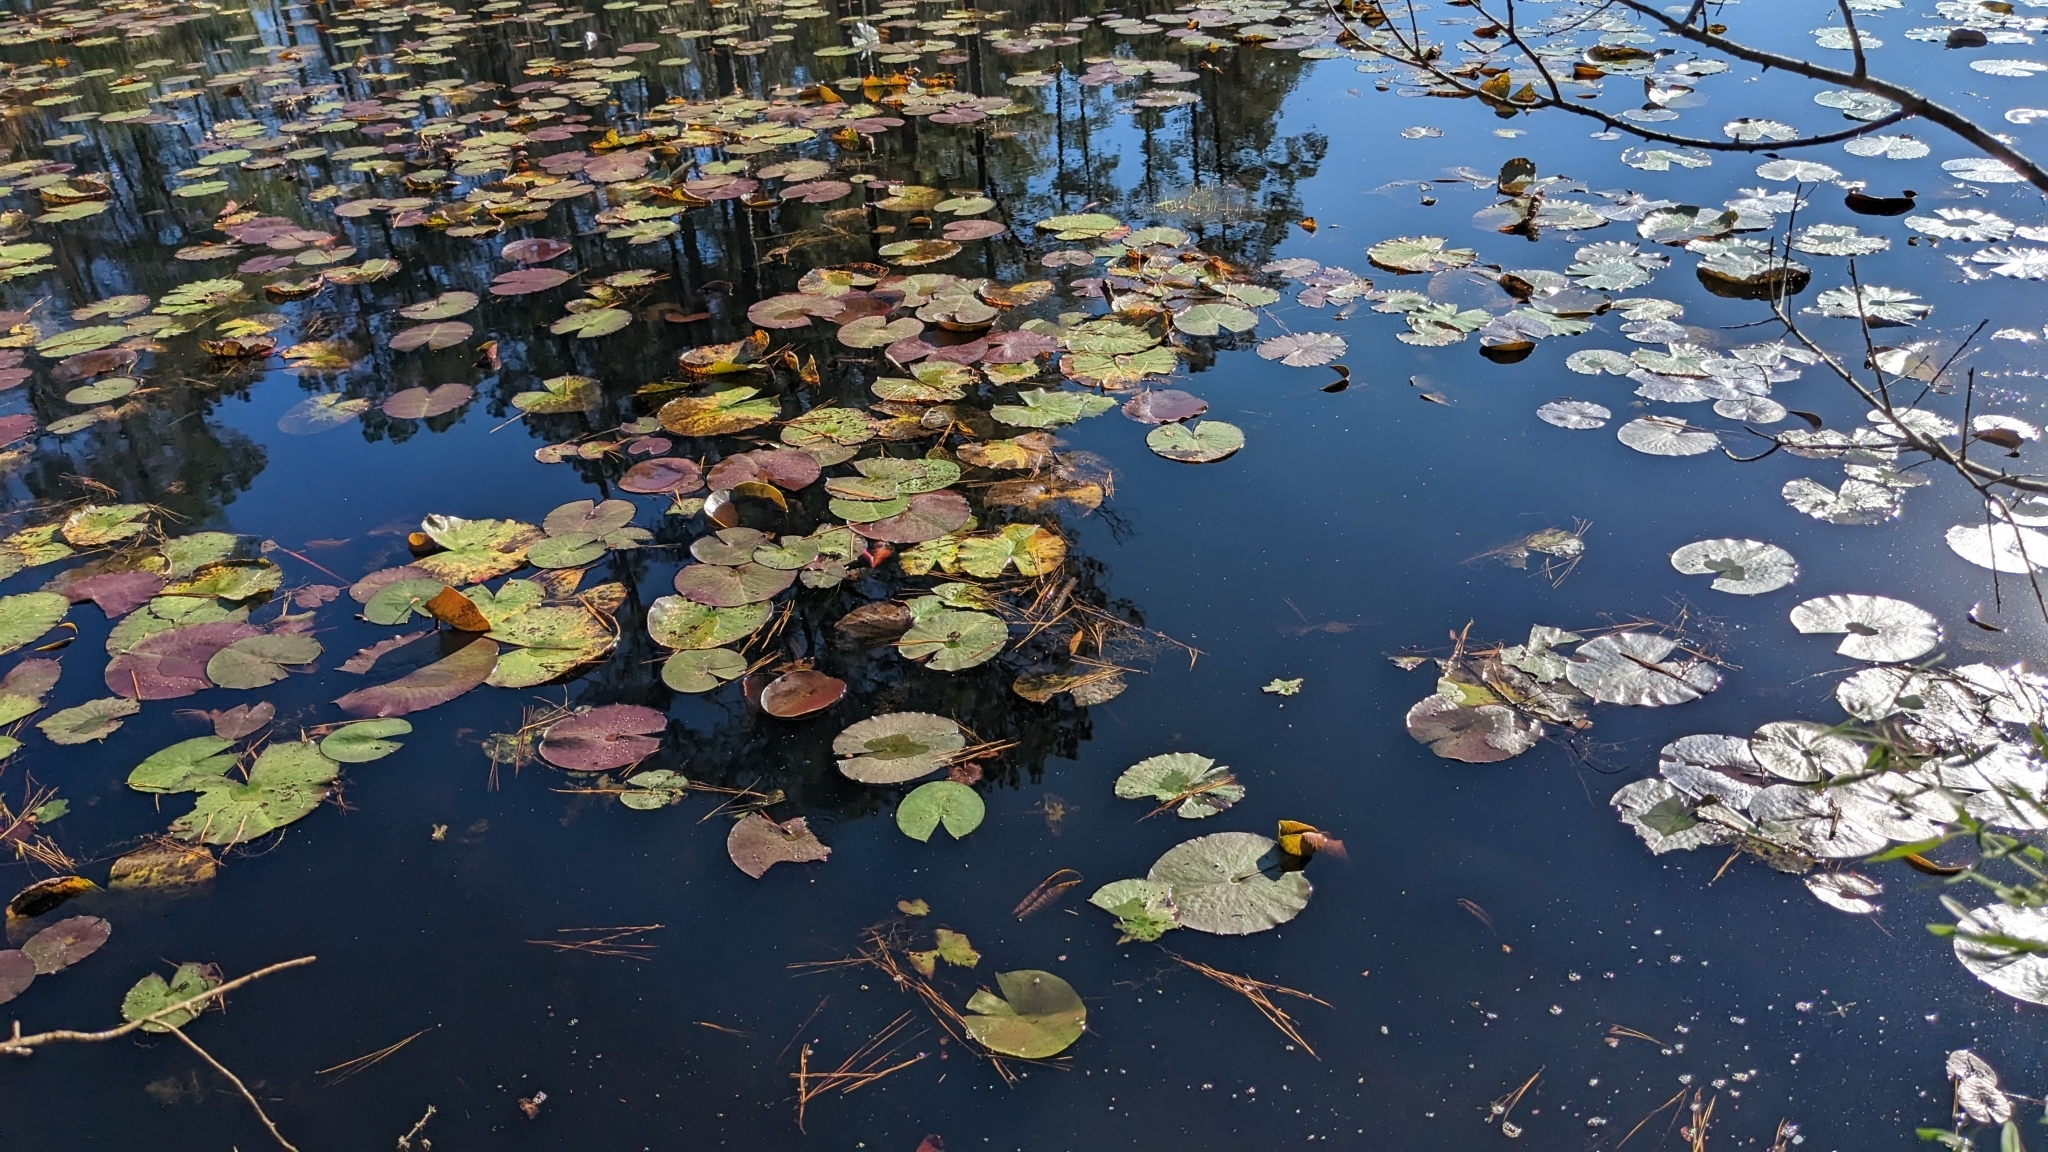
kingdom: Plantae
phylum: Tracheophyta
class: Magnoliopsida
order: Nymphaeales
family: Nymphaeaceae
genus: Nymphaea
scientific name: Nymphaea odorata
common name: Fragrant water-lily
